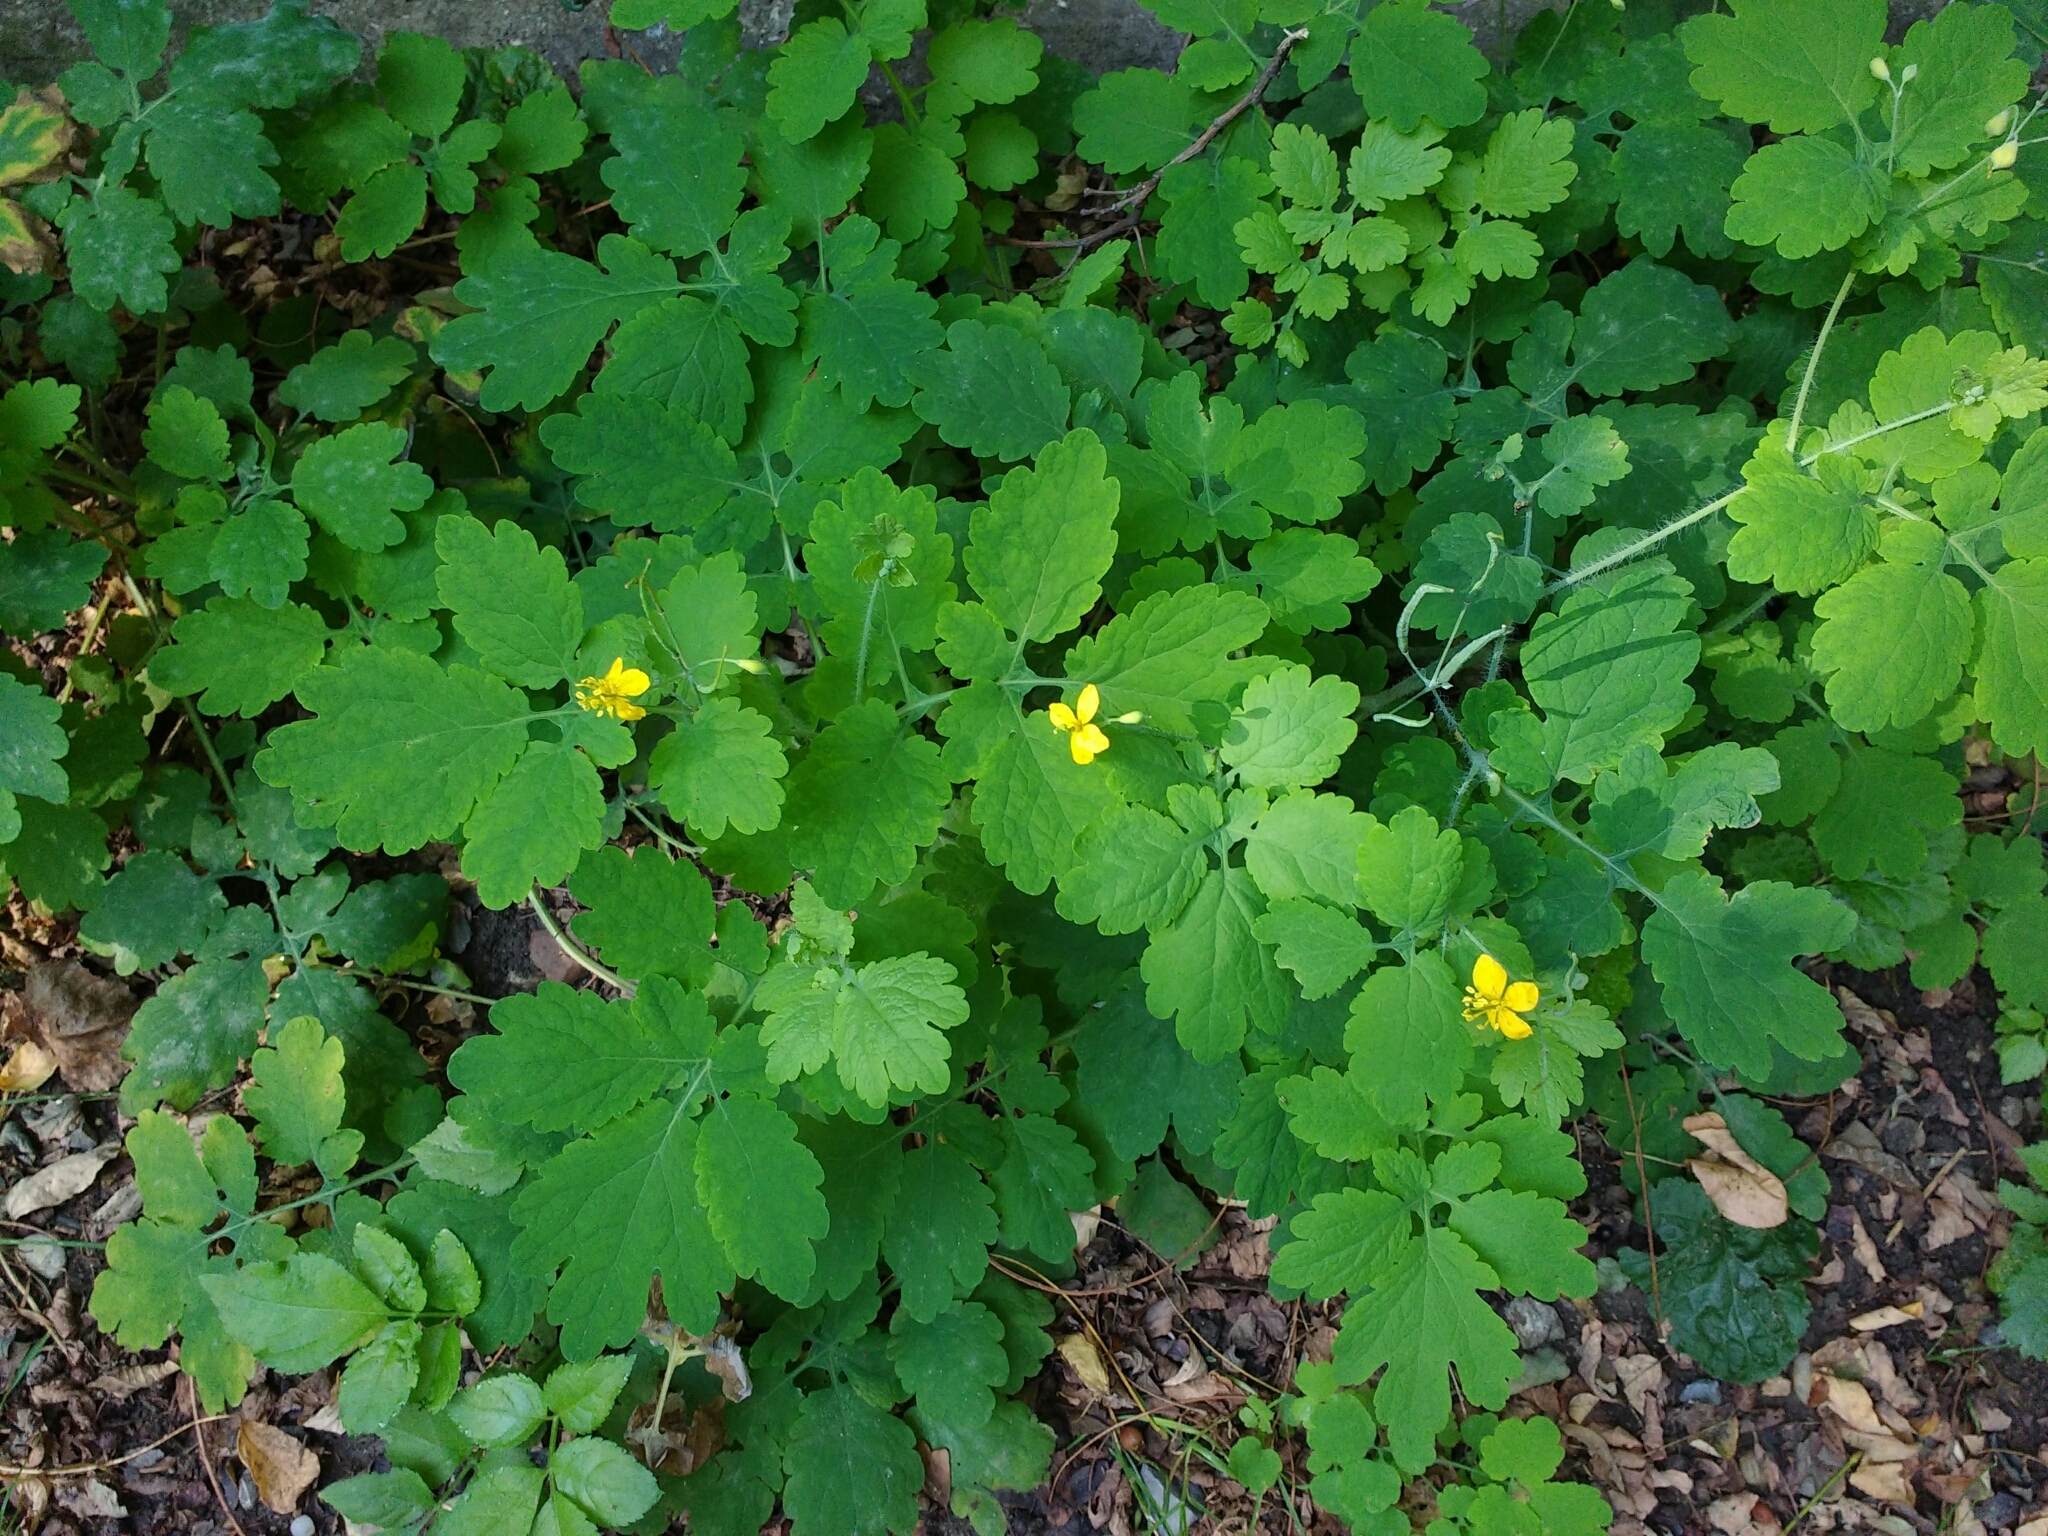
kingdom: Plantae
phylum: Tracheophyta
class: Magnoliopsida
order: Ranunculales
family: Papaveraceae
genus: Chelidonium
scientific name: Chelidonium majus
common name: Greater celandine
